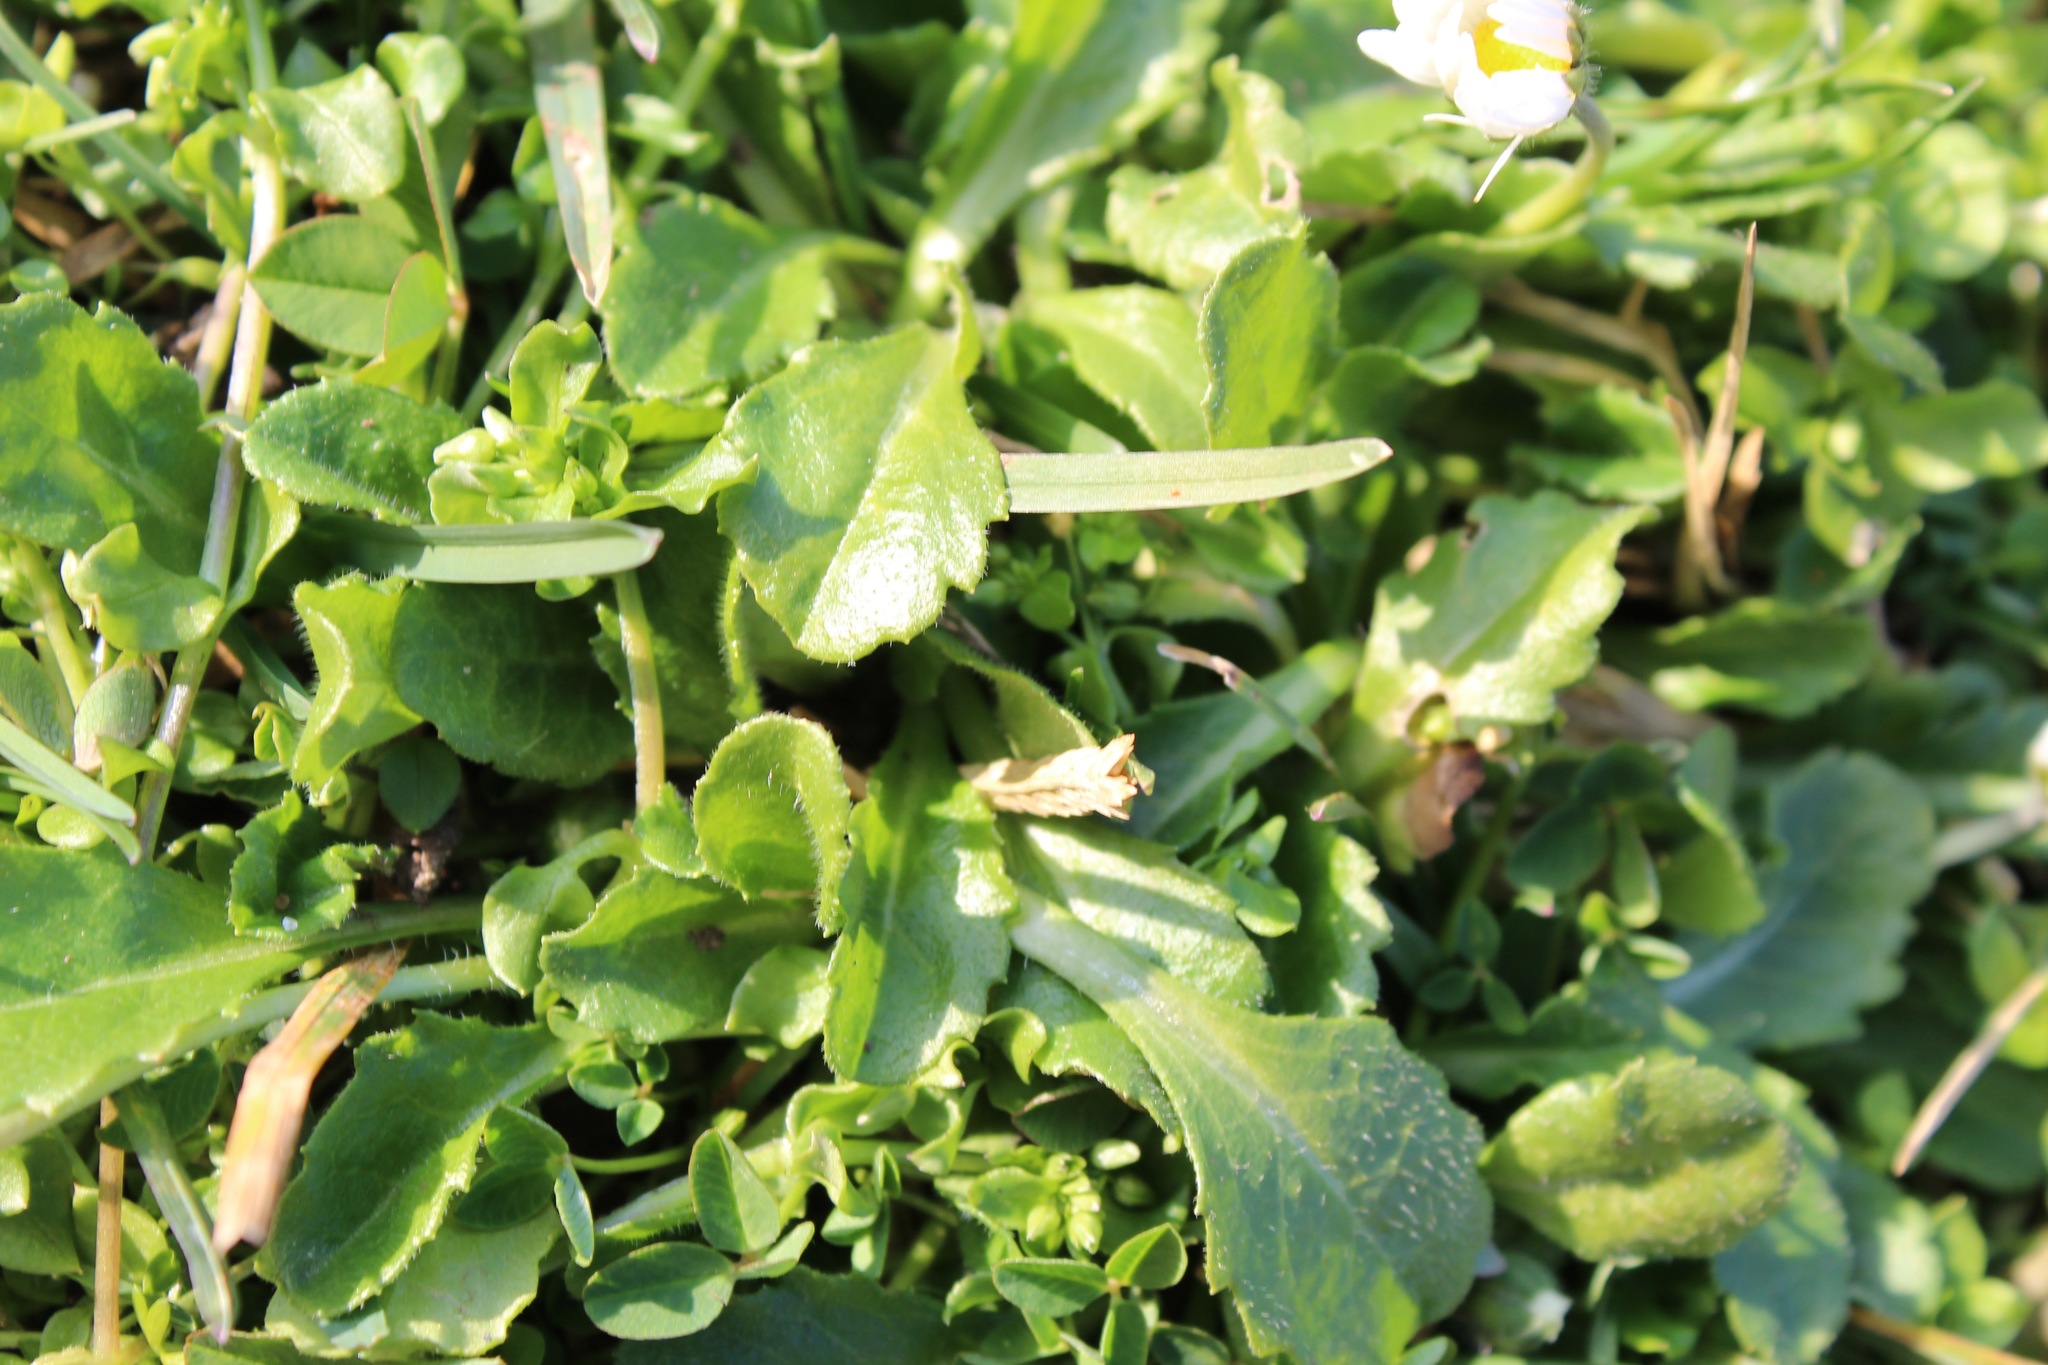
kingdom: Plantae
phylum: Tracheophyta
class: Magnoliopsida
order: Asterales
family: Asteraceae
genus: Bellis
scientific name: Bellis perennis
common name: Lawndaisy
